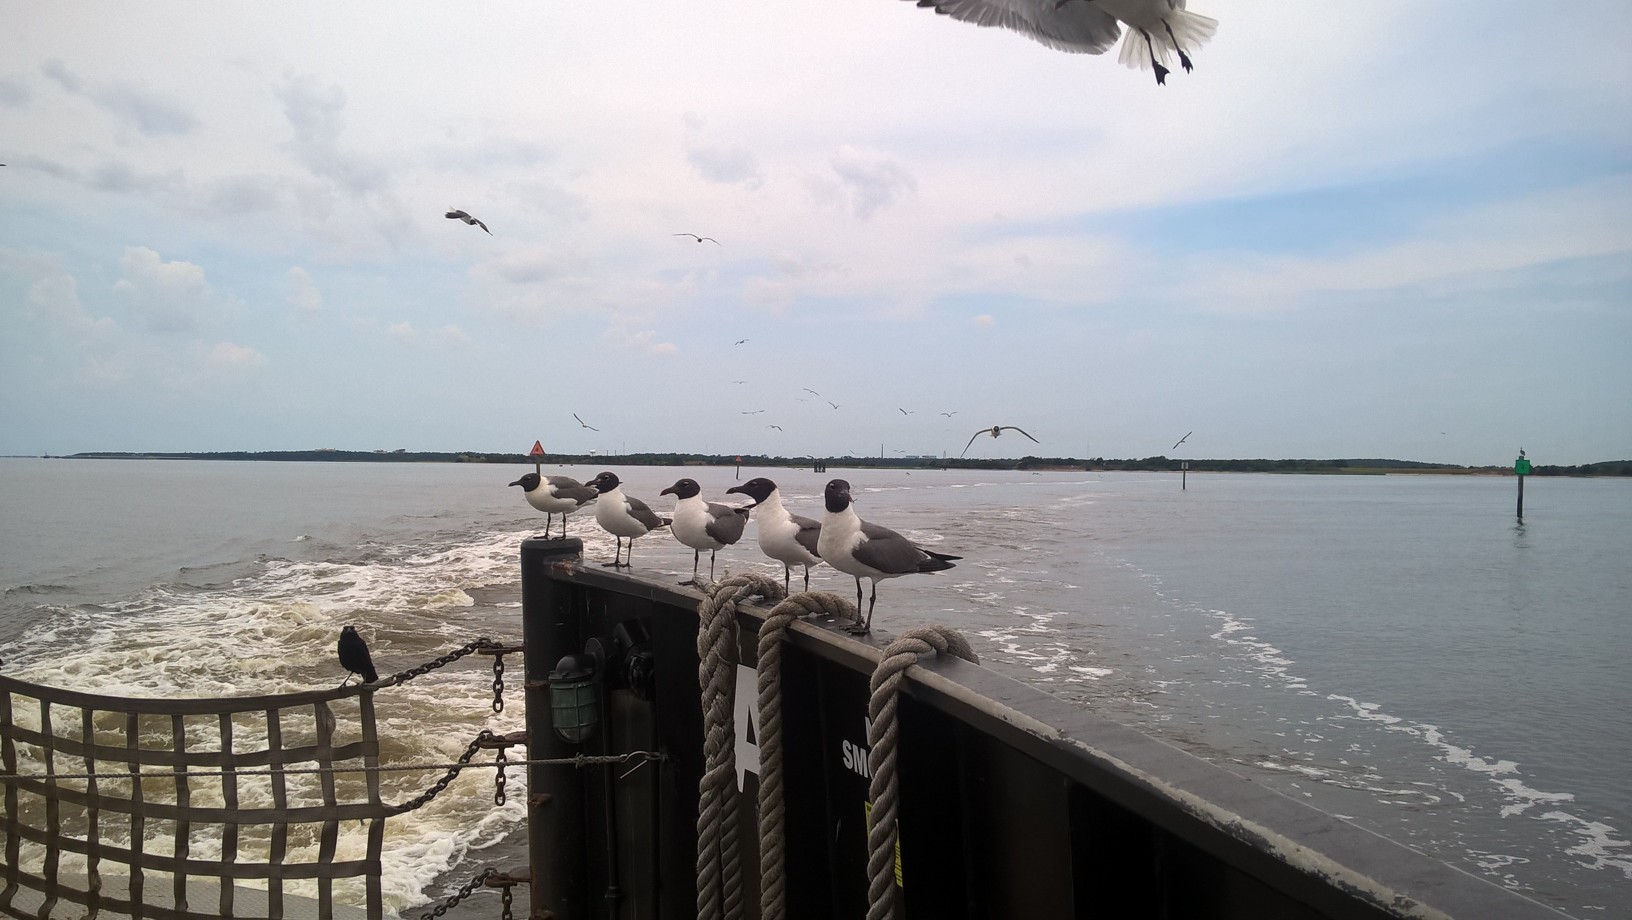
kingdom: Animalia
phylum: Chordata
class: Aves
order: Charadriiformes
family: Laridae
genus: Leucophaeus
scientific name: Leucophaeus atricilla
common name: Laughing gull
